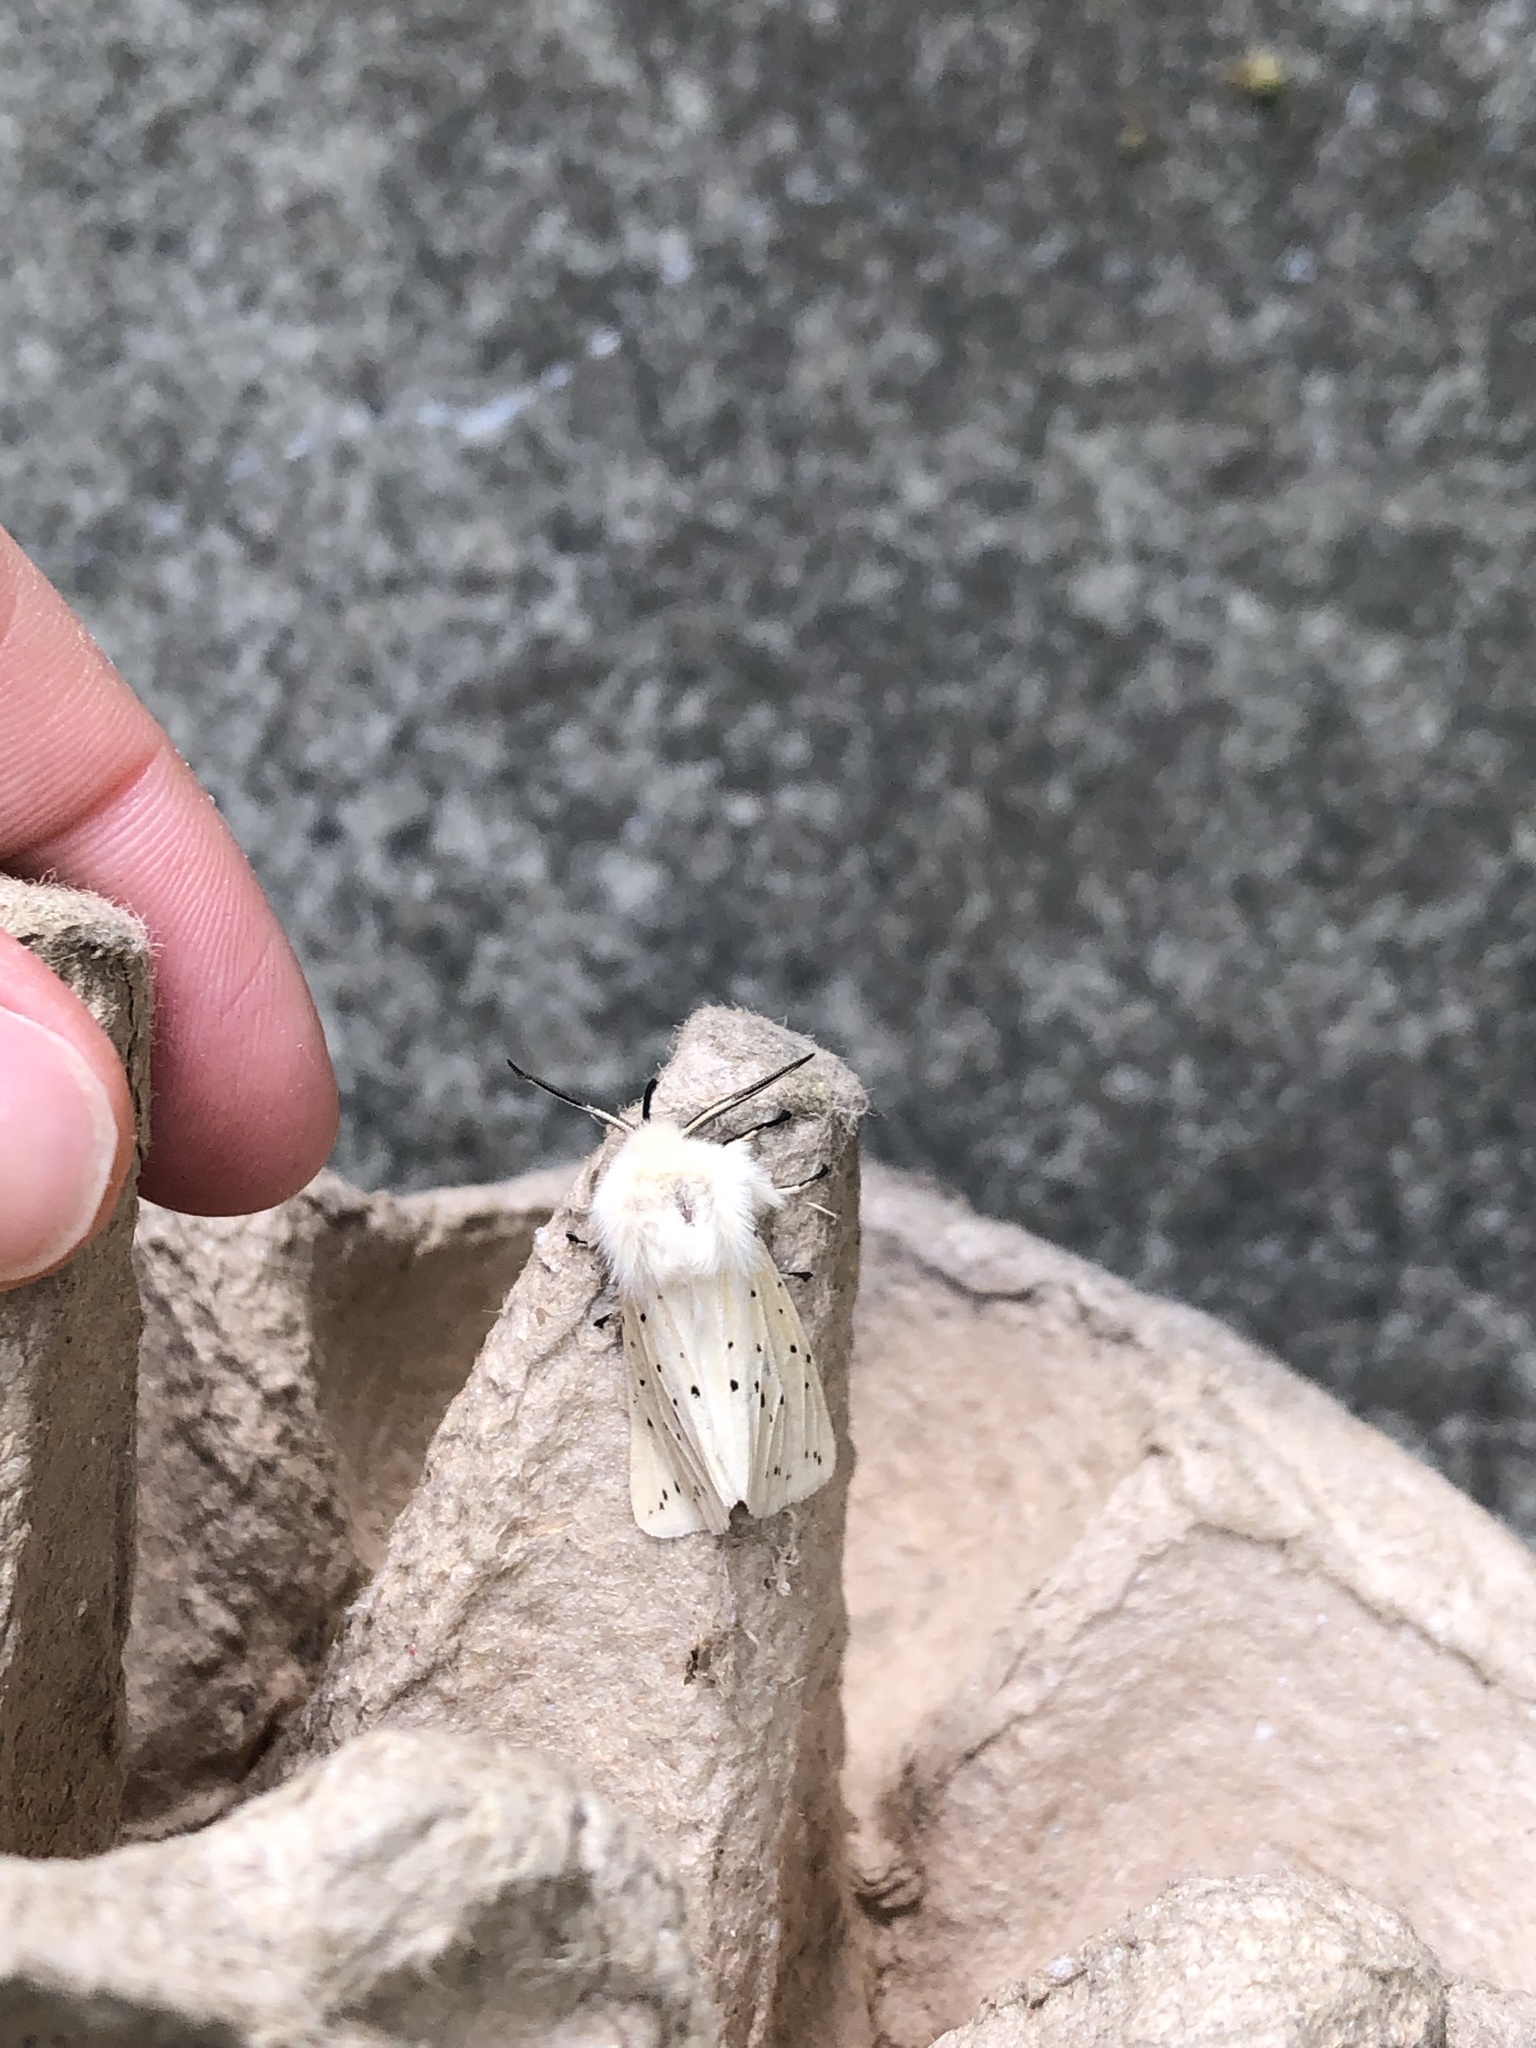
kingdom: Animalia
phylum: Arthropoda
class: Insecta
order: Lepidoptera
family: Erebidae
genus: Spilosoma
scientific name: Spilosoma lubricipeda
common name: White ermine
